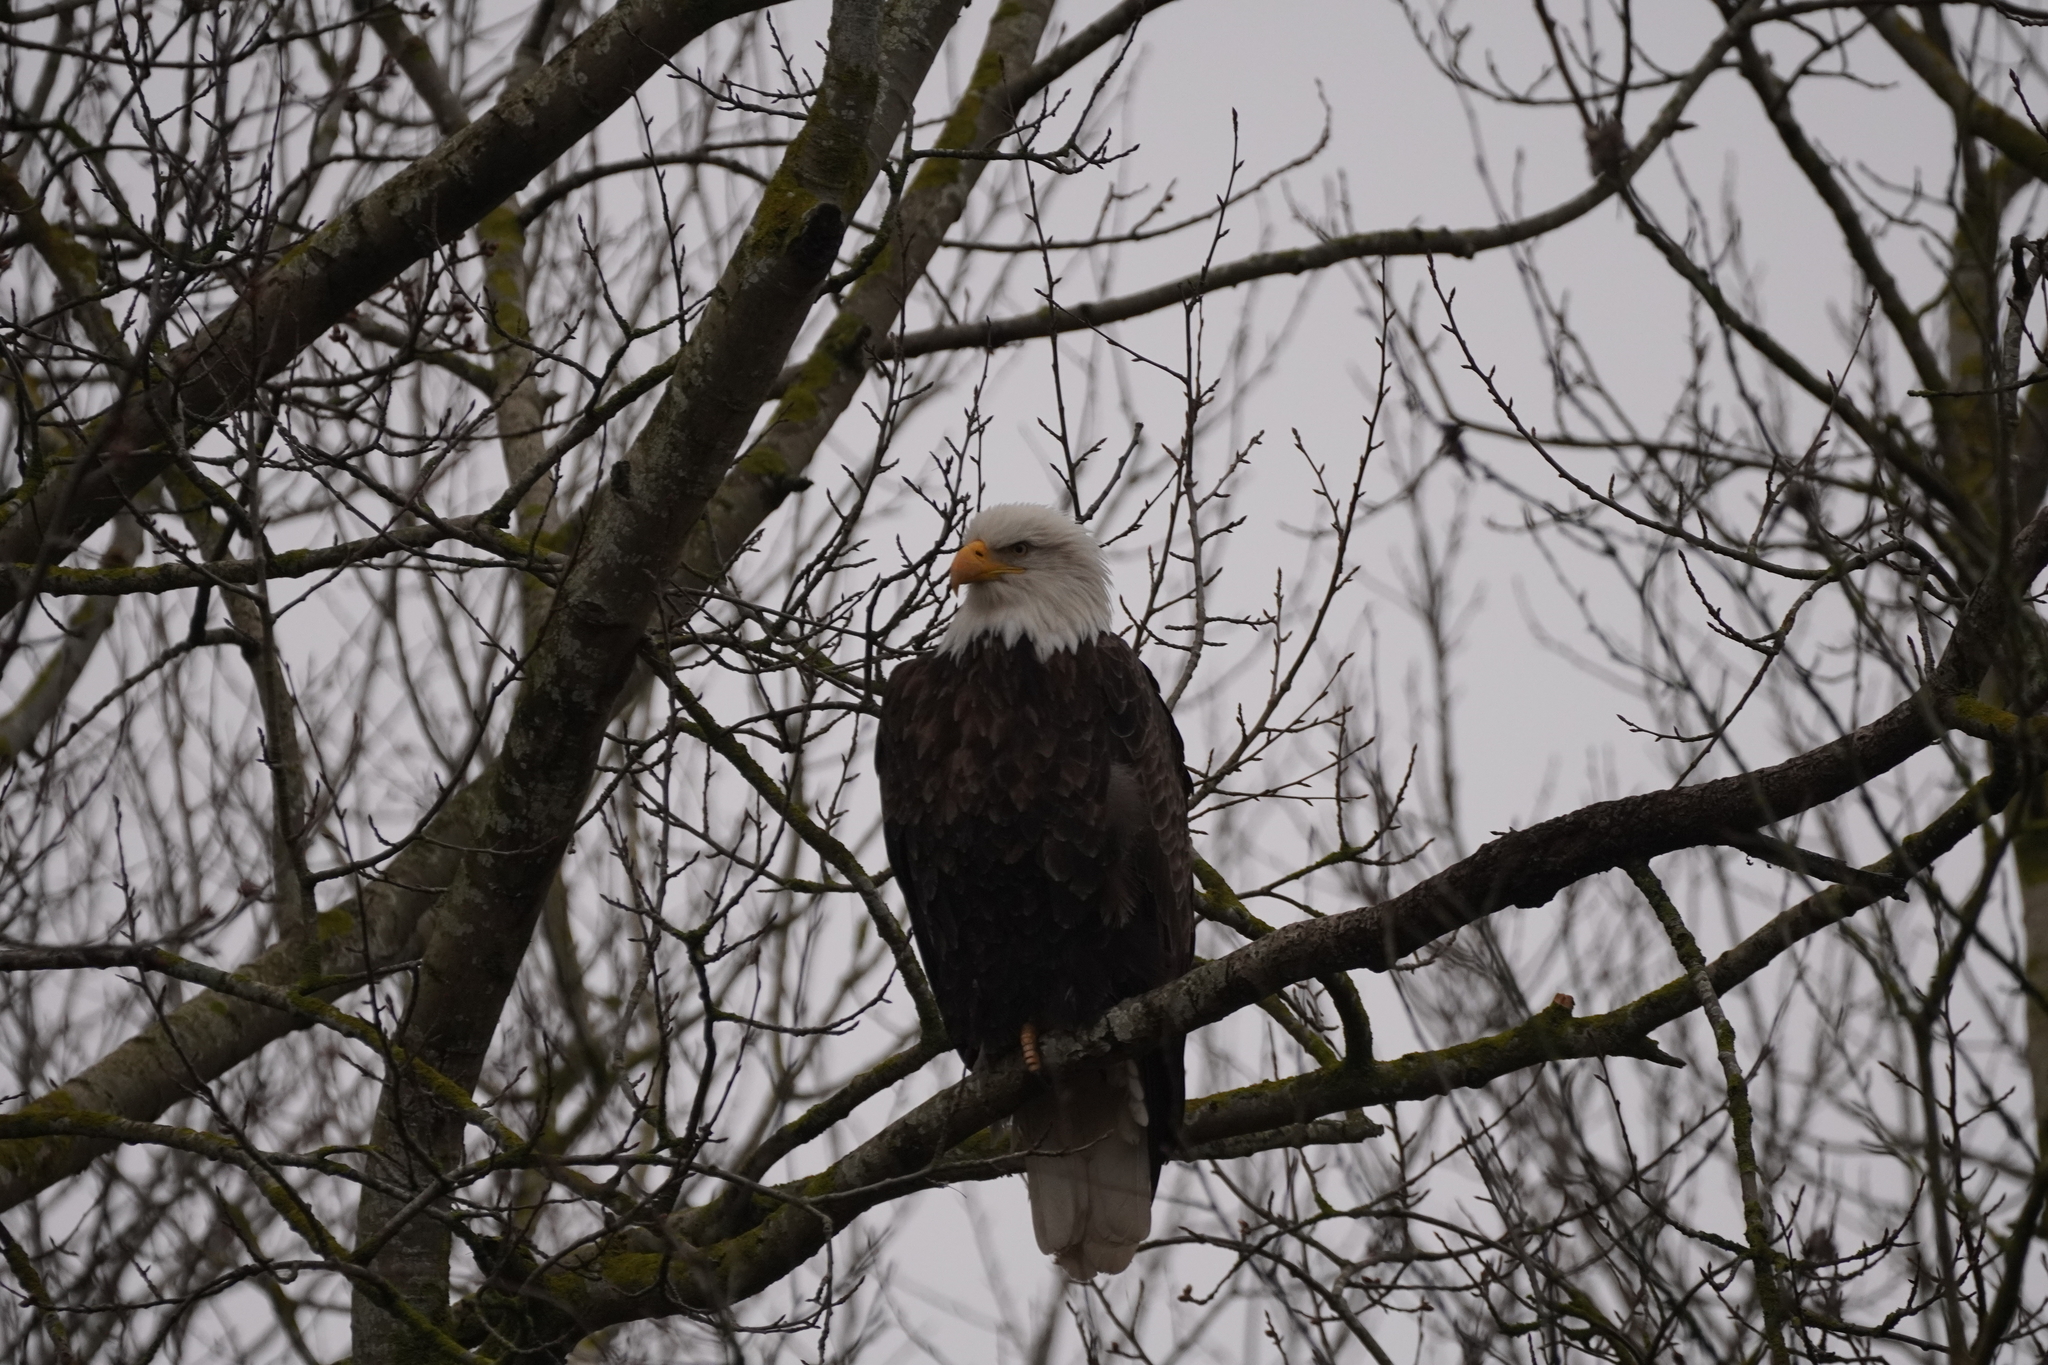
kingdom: Animalia
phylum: Chordata
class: Aves
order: Accipitriformes
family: Accipitridae
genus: Haliaeetus
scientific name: Haliaeetus leucocephalus
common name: Bald eagle
